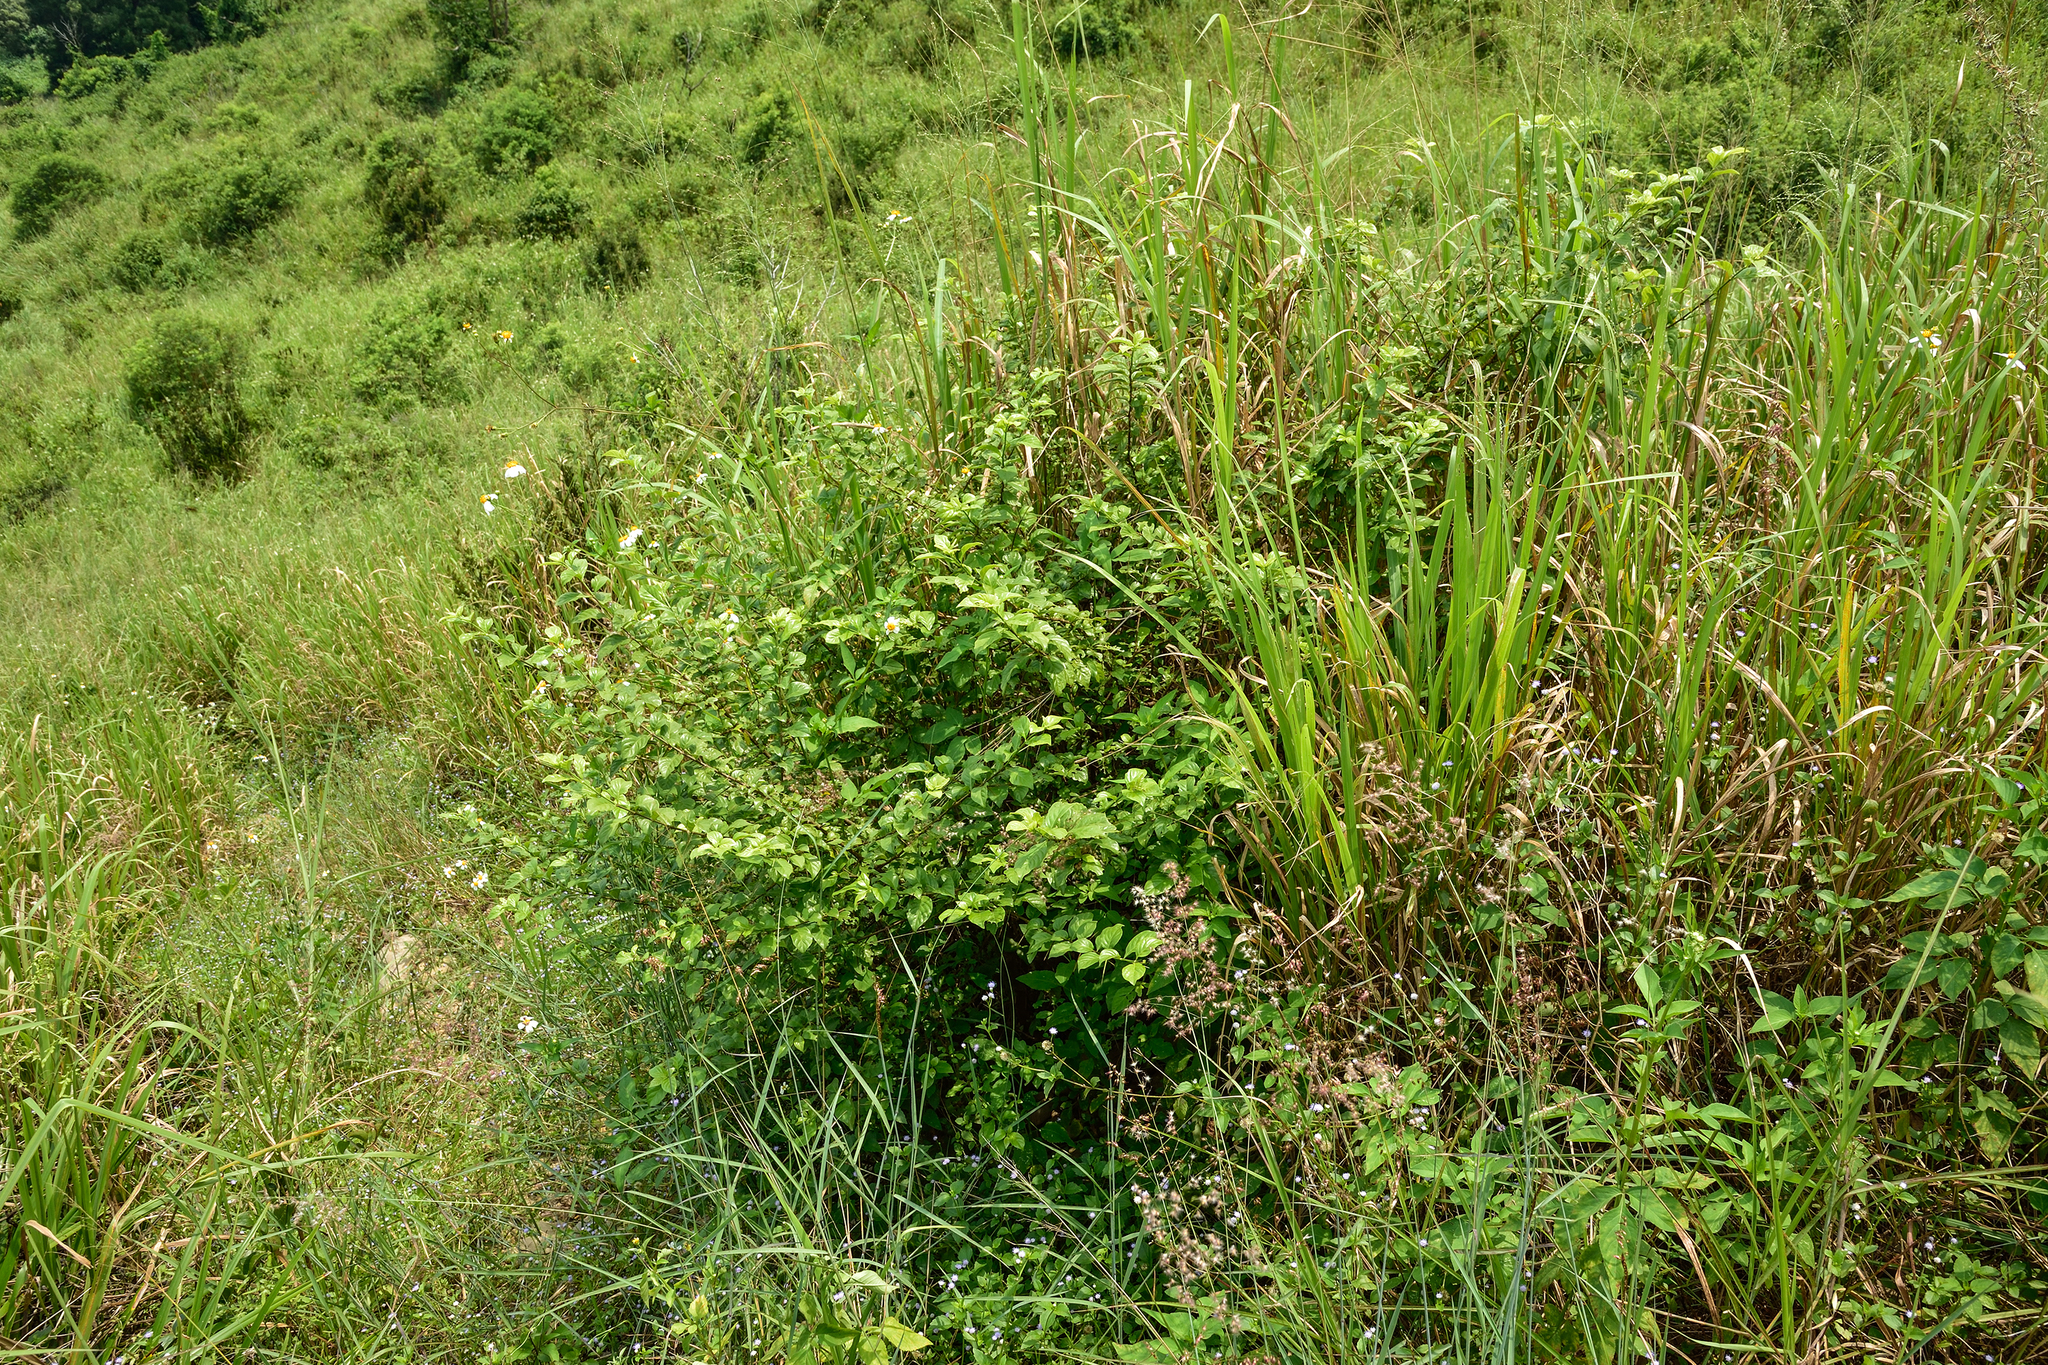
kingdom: Plantae
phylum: Tracheophyta
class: Magnoliopsida
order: Gentianales
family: Rubiaceae
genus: Randia
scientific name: Randia aculeata
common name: Inkberry
